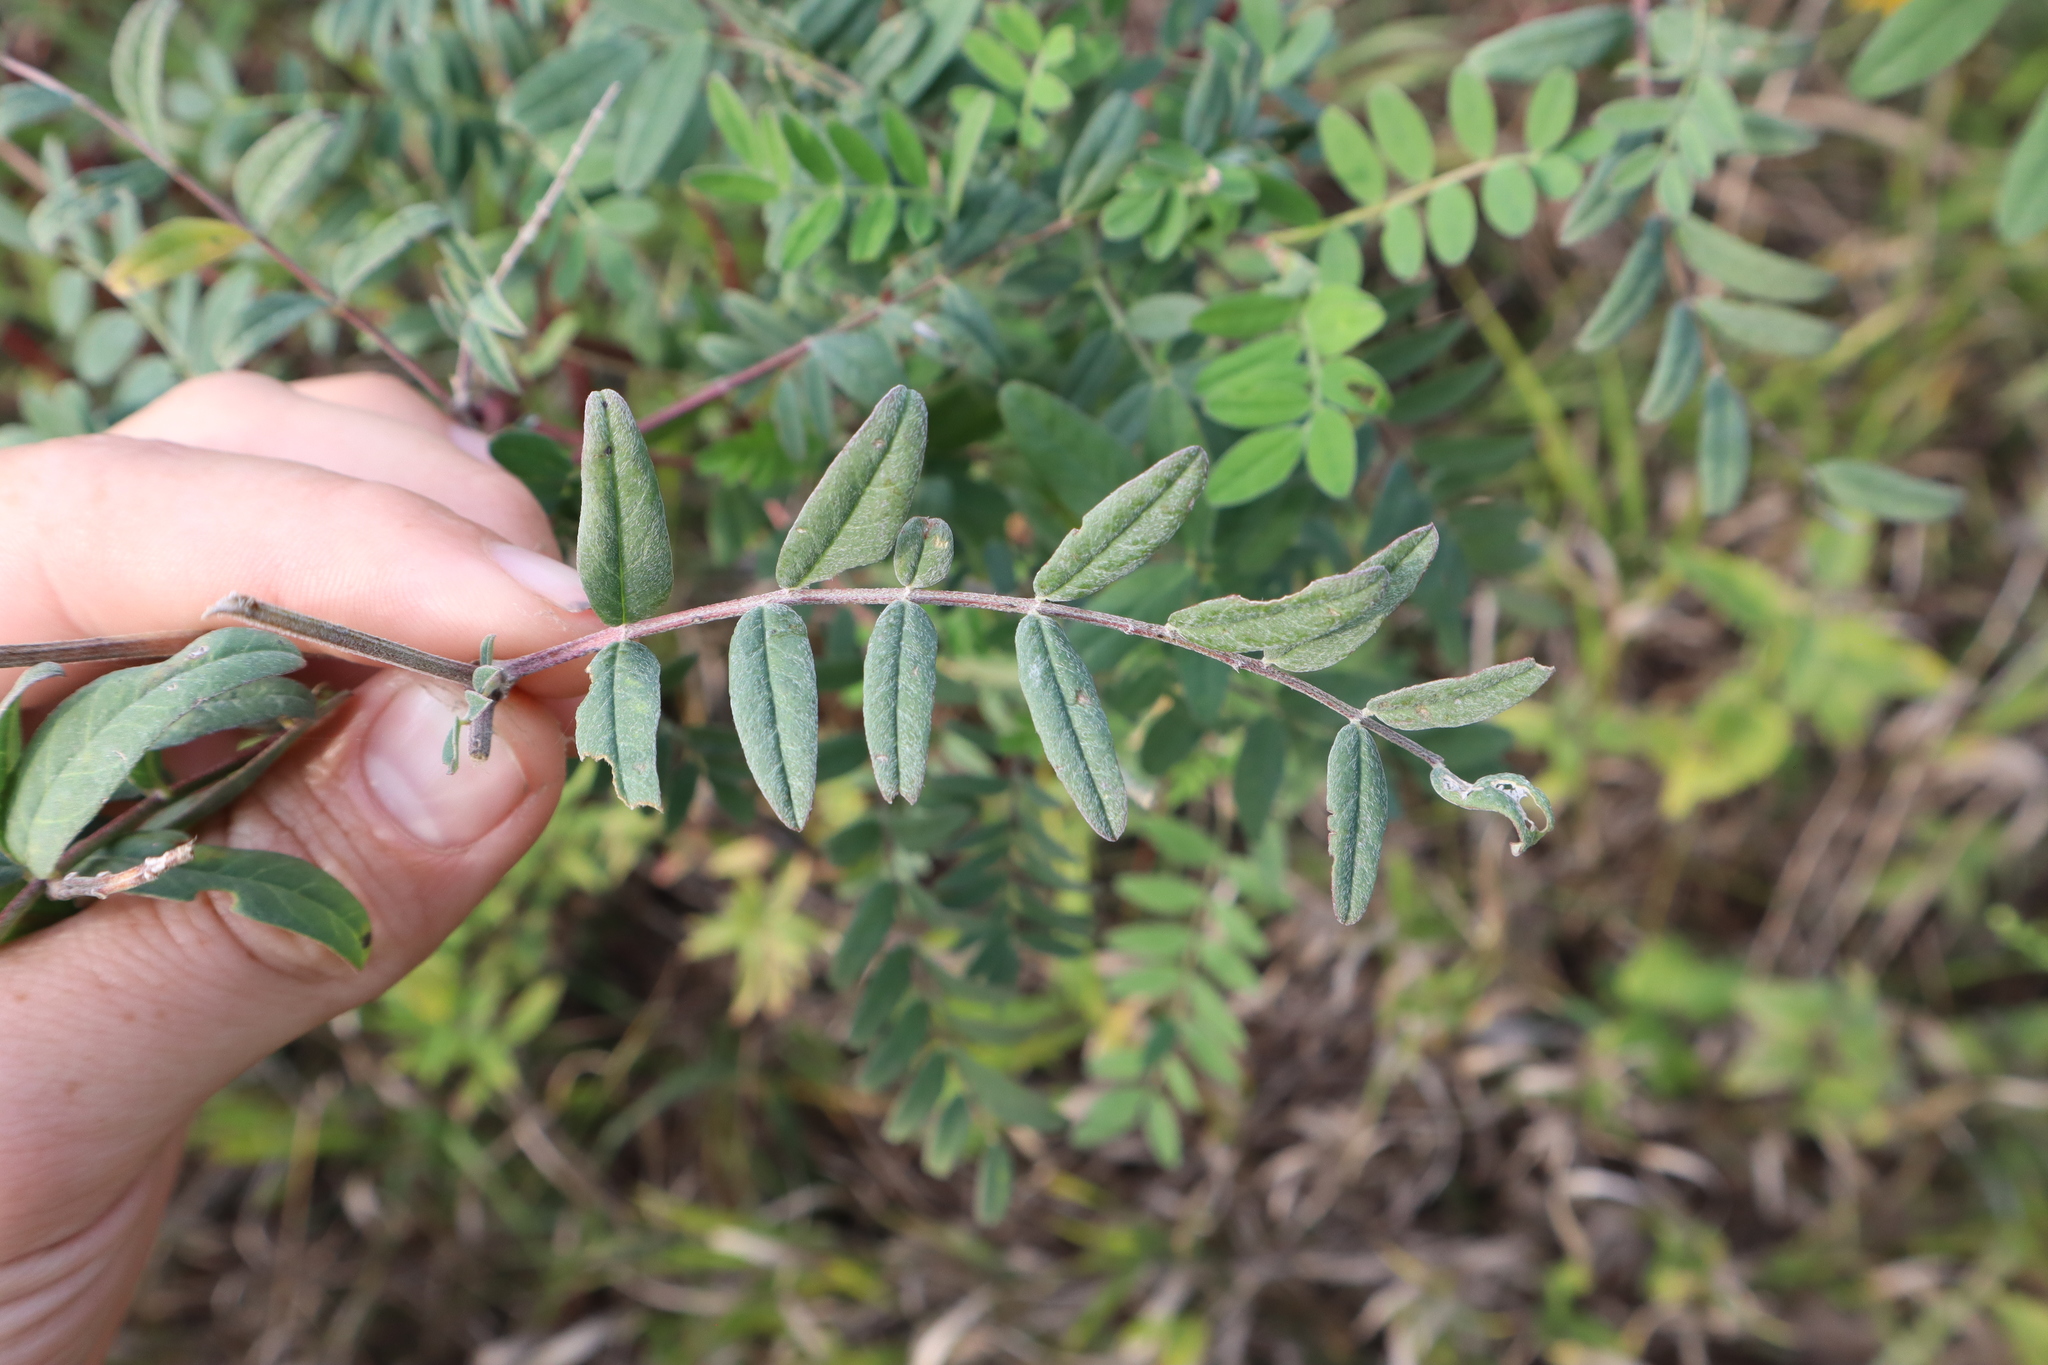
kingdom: Plantae
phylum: Tracheophyta
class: Magnoliopsida
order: Fabales
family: Fabaceae
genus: Amorpha
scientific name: Amorpha fruticosa
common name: False indigo
